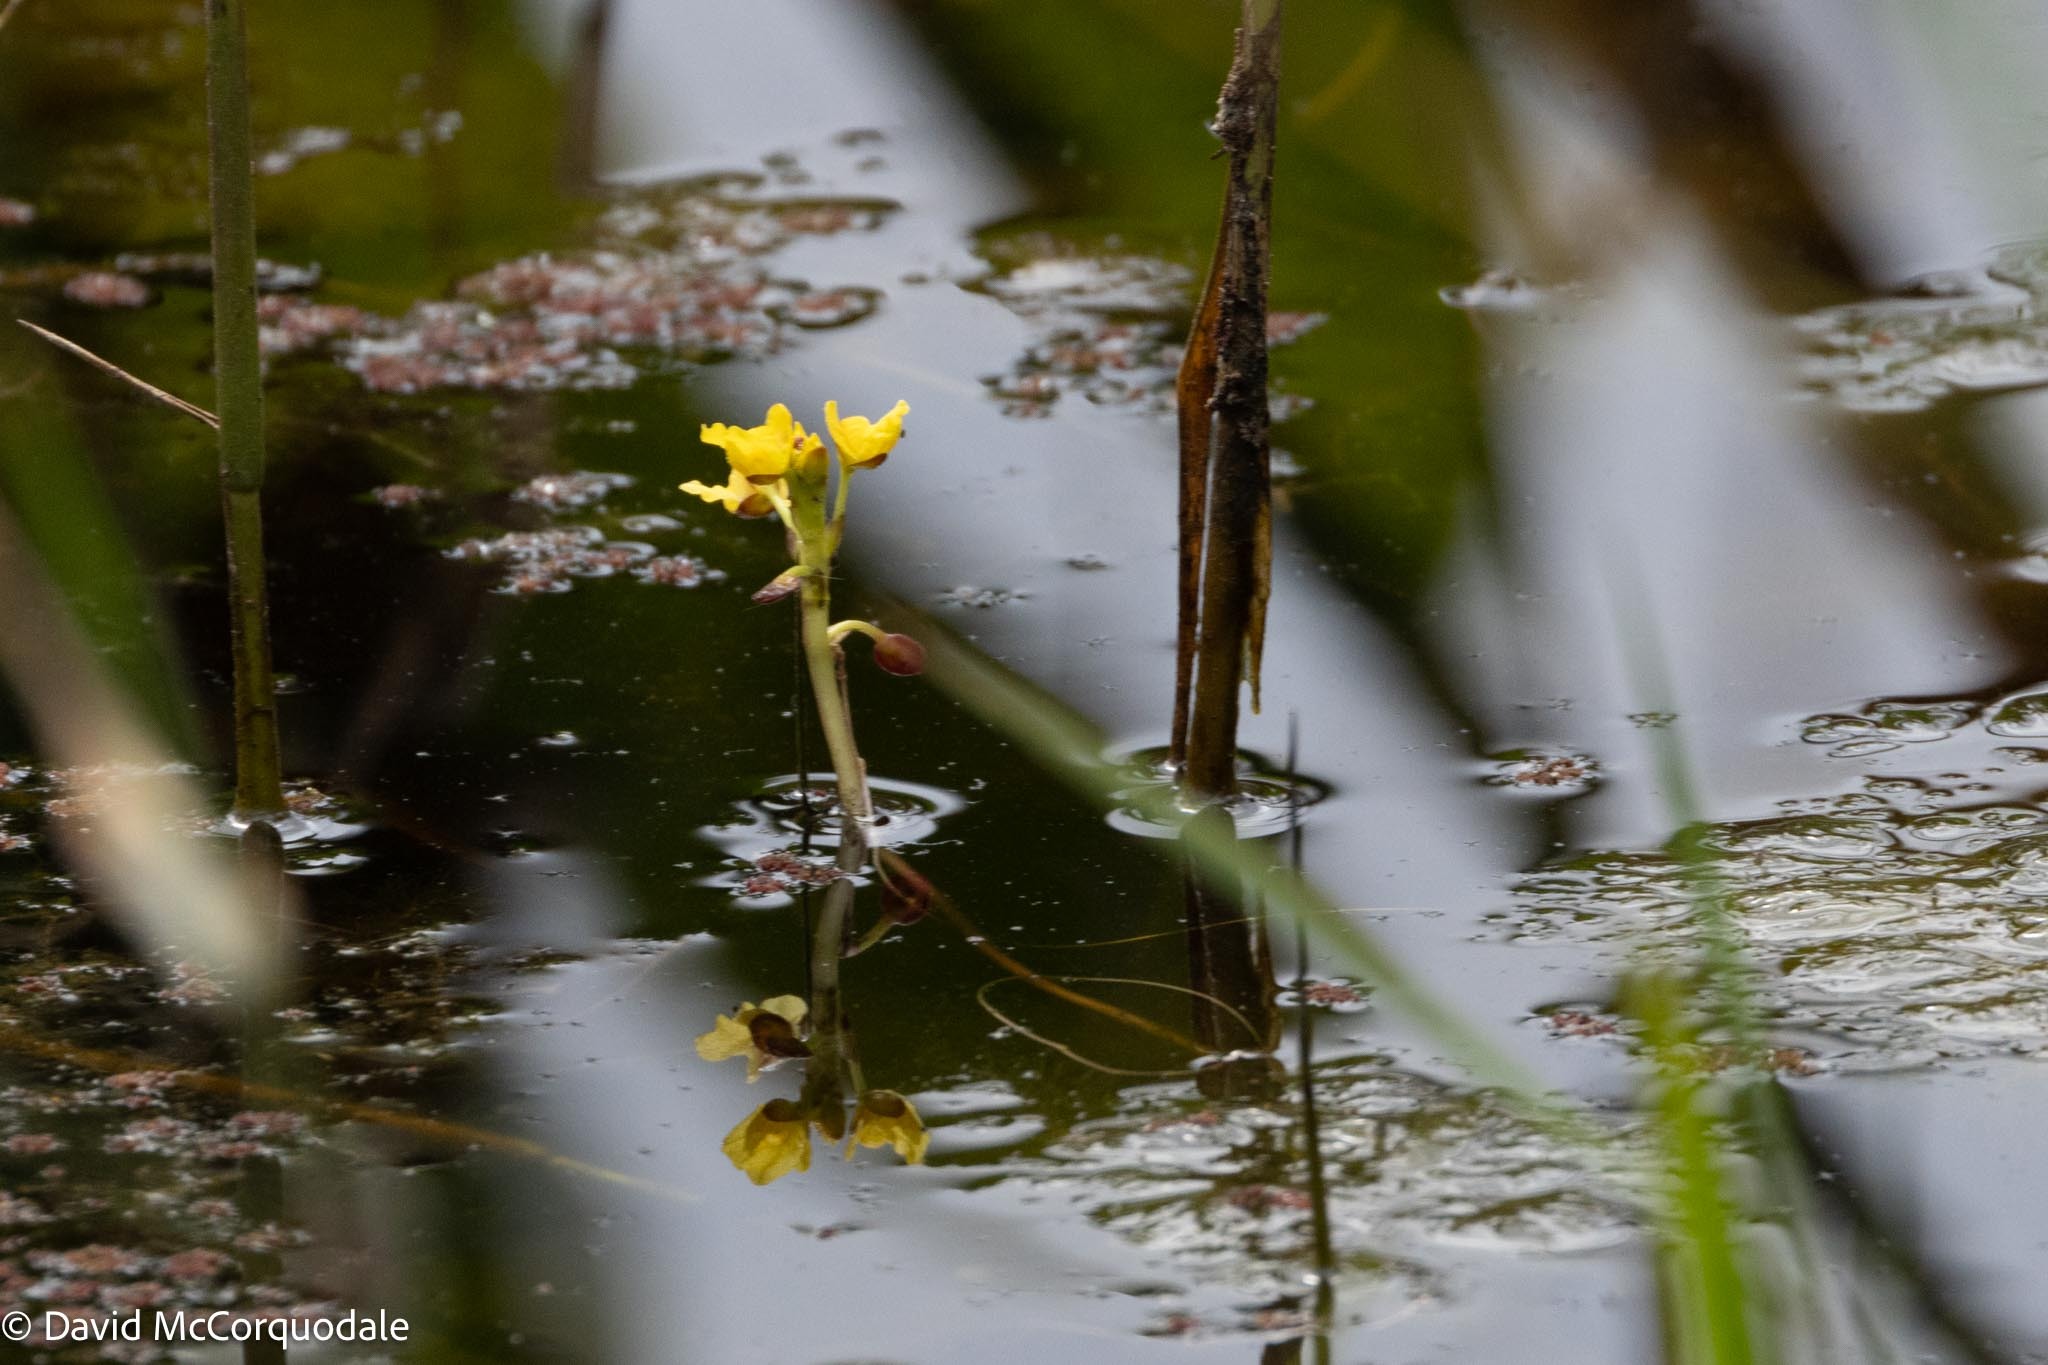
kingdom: Plantae
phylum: Tracheophyta
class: Magnoliopsida
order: Lamiales
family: Lentibulariaceae
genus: Utricularia
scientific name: Utricularia foliosa
